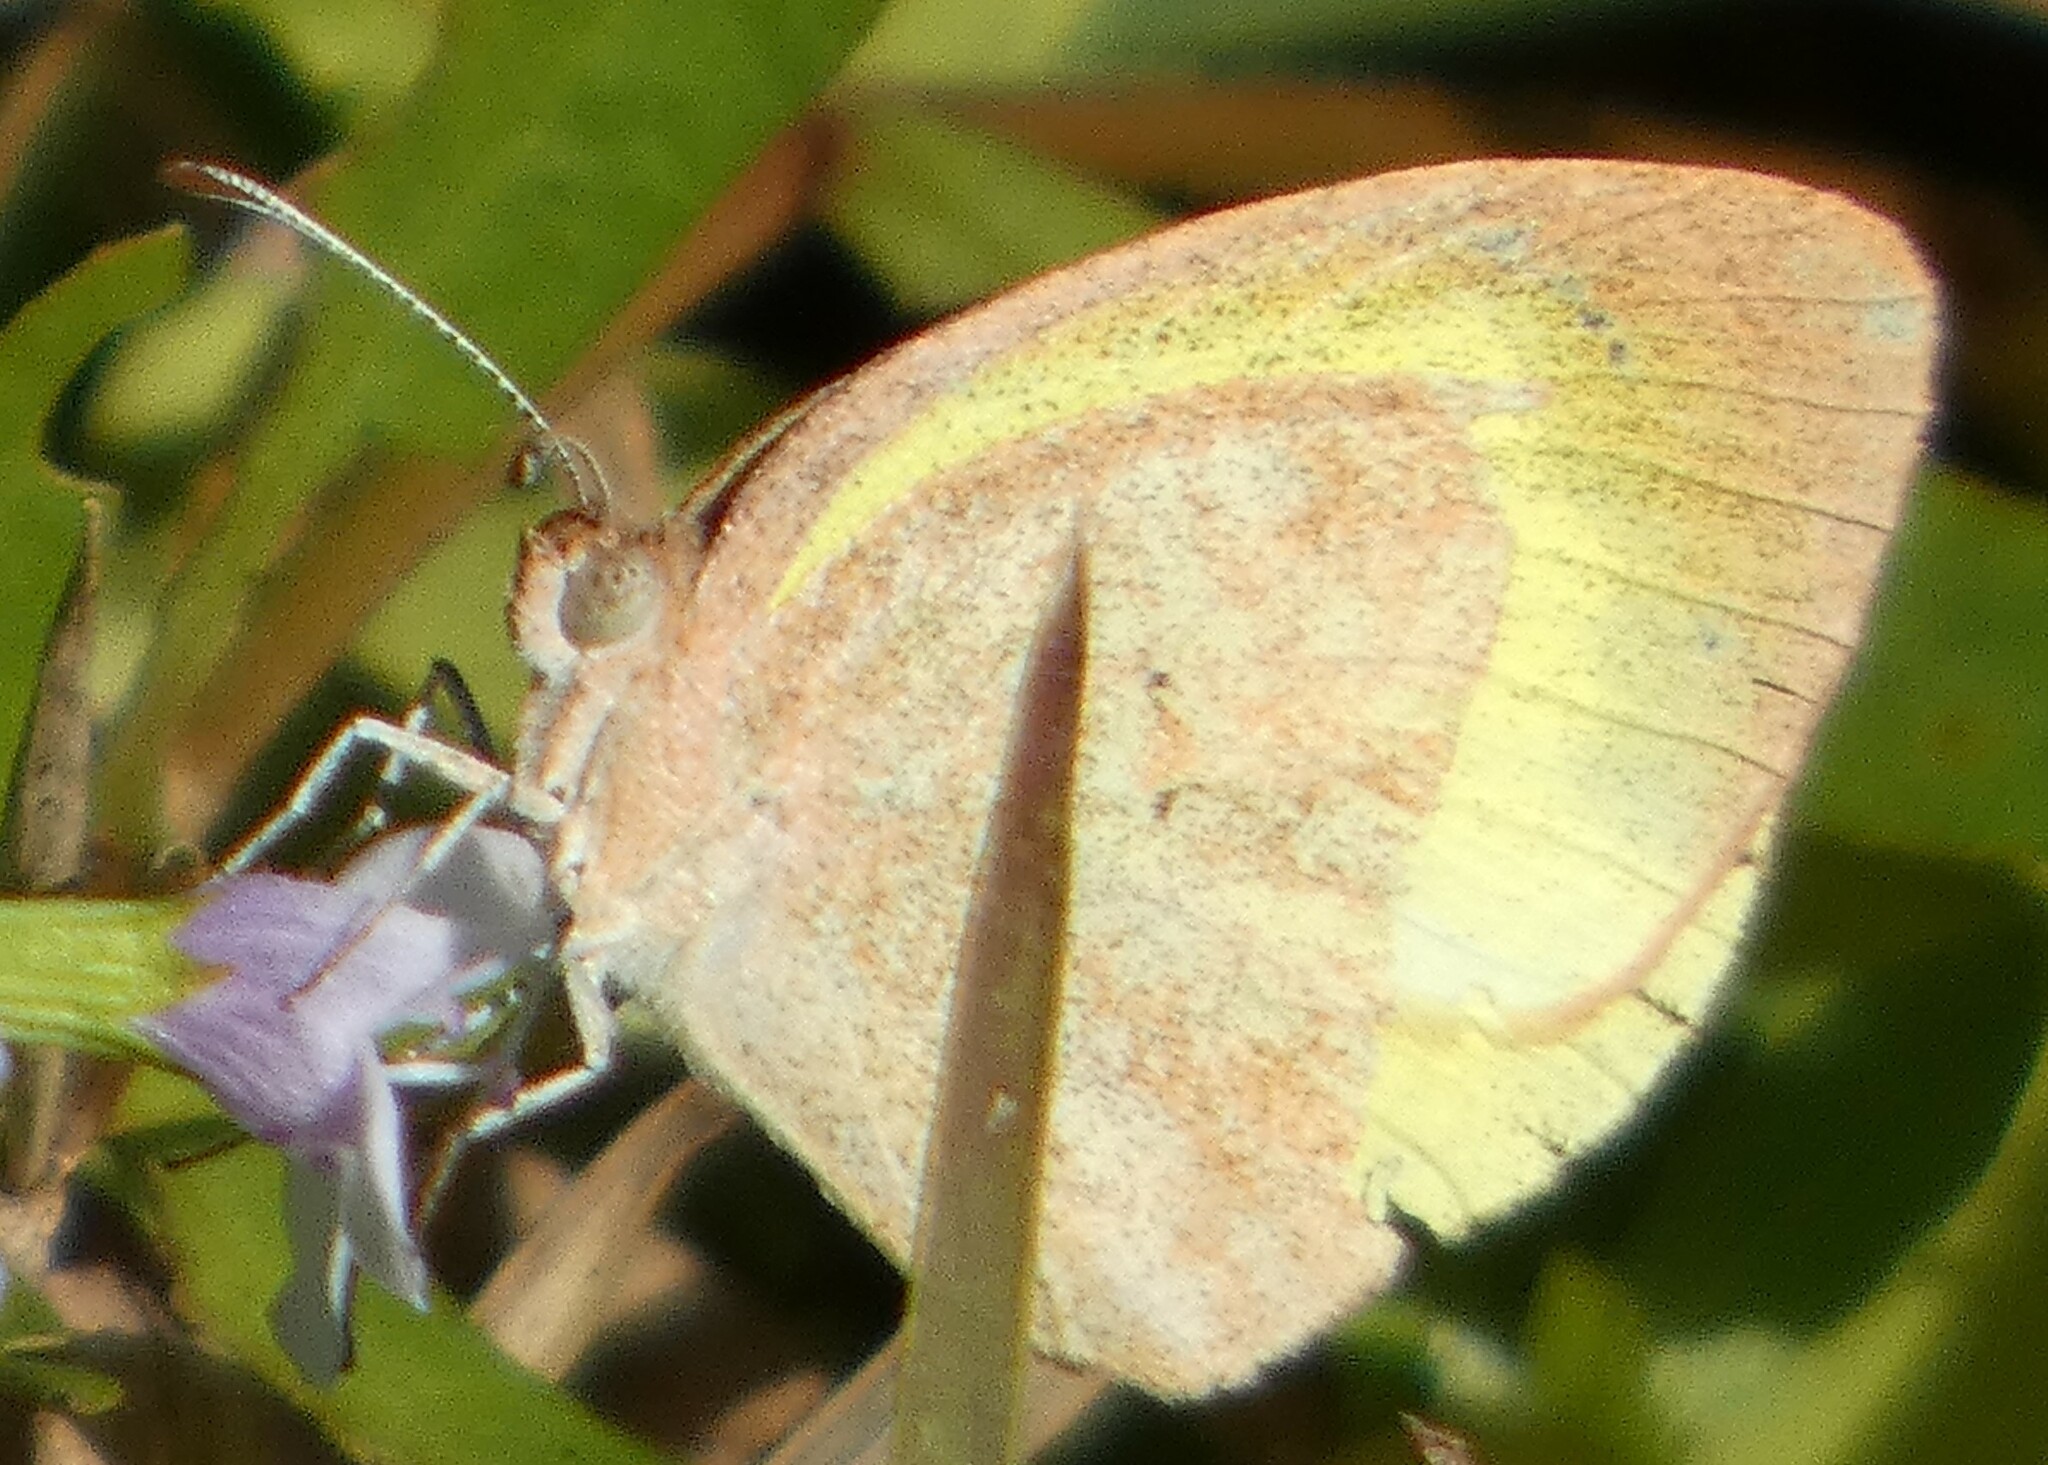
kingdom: Animalia
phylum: Arthropoda
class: Insecta
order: Lepidoptera
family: Pieridae
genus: Eurema
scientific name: Eurema daira
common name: Barred sulphur
